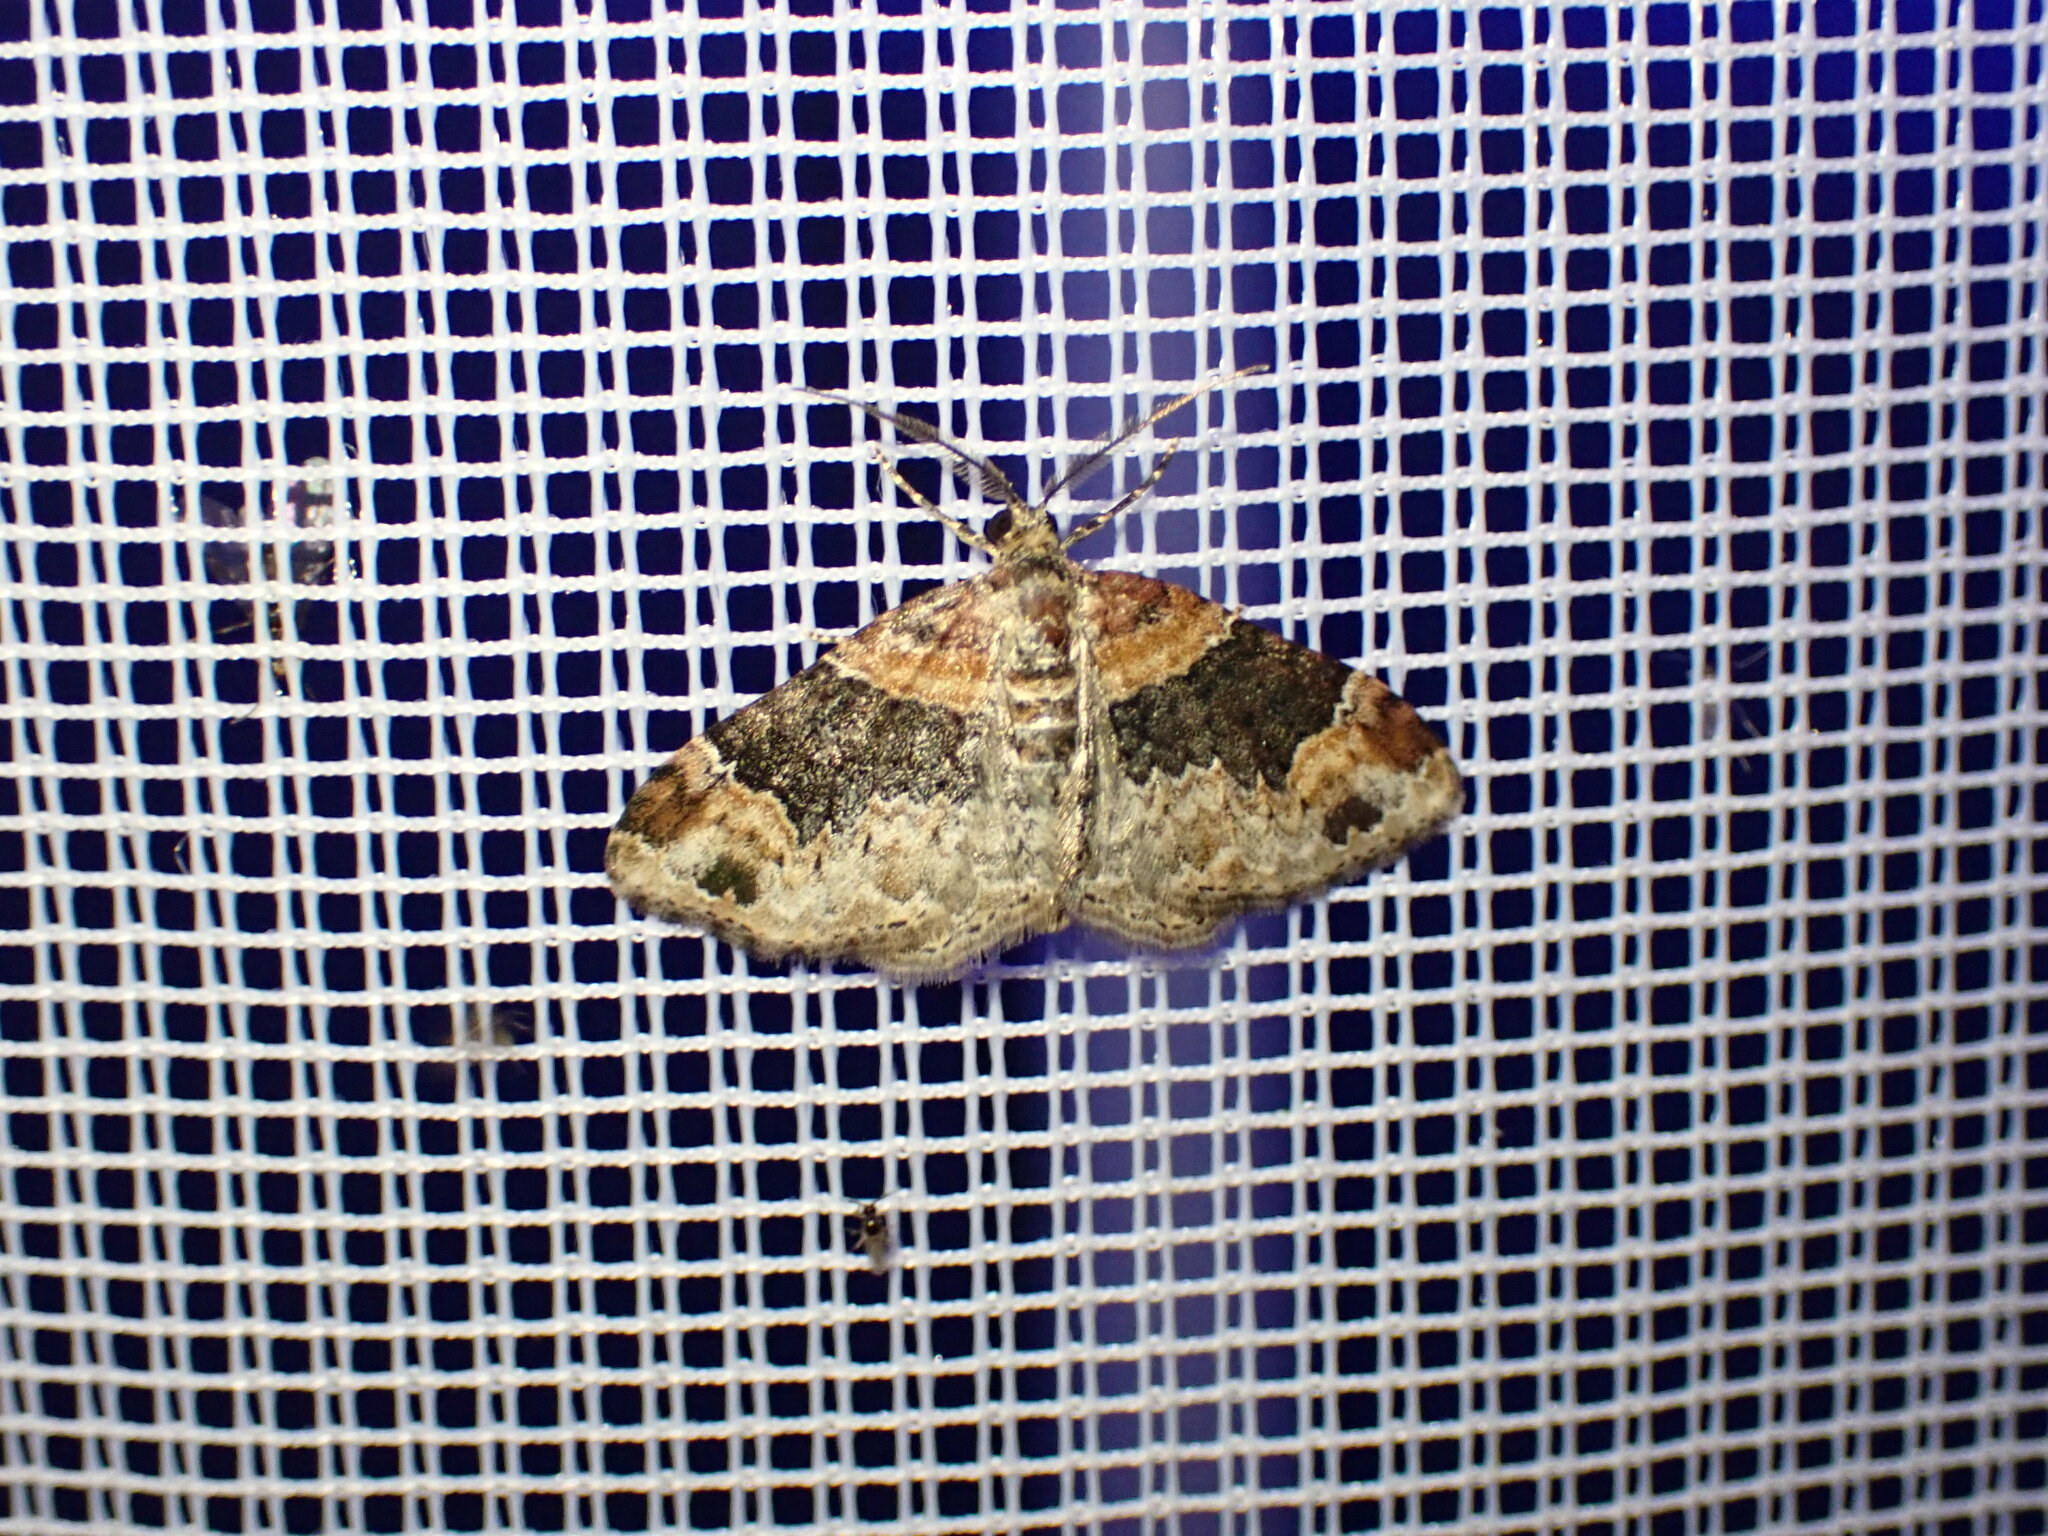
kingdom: Animalia
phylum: Arthropoda
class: Insecta
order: Lepidoptera
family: Geometridae
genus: Xanthorhoe
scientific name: Xanthorhoe ferrugata
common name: Dark-barred twin-spot carpet
